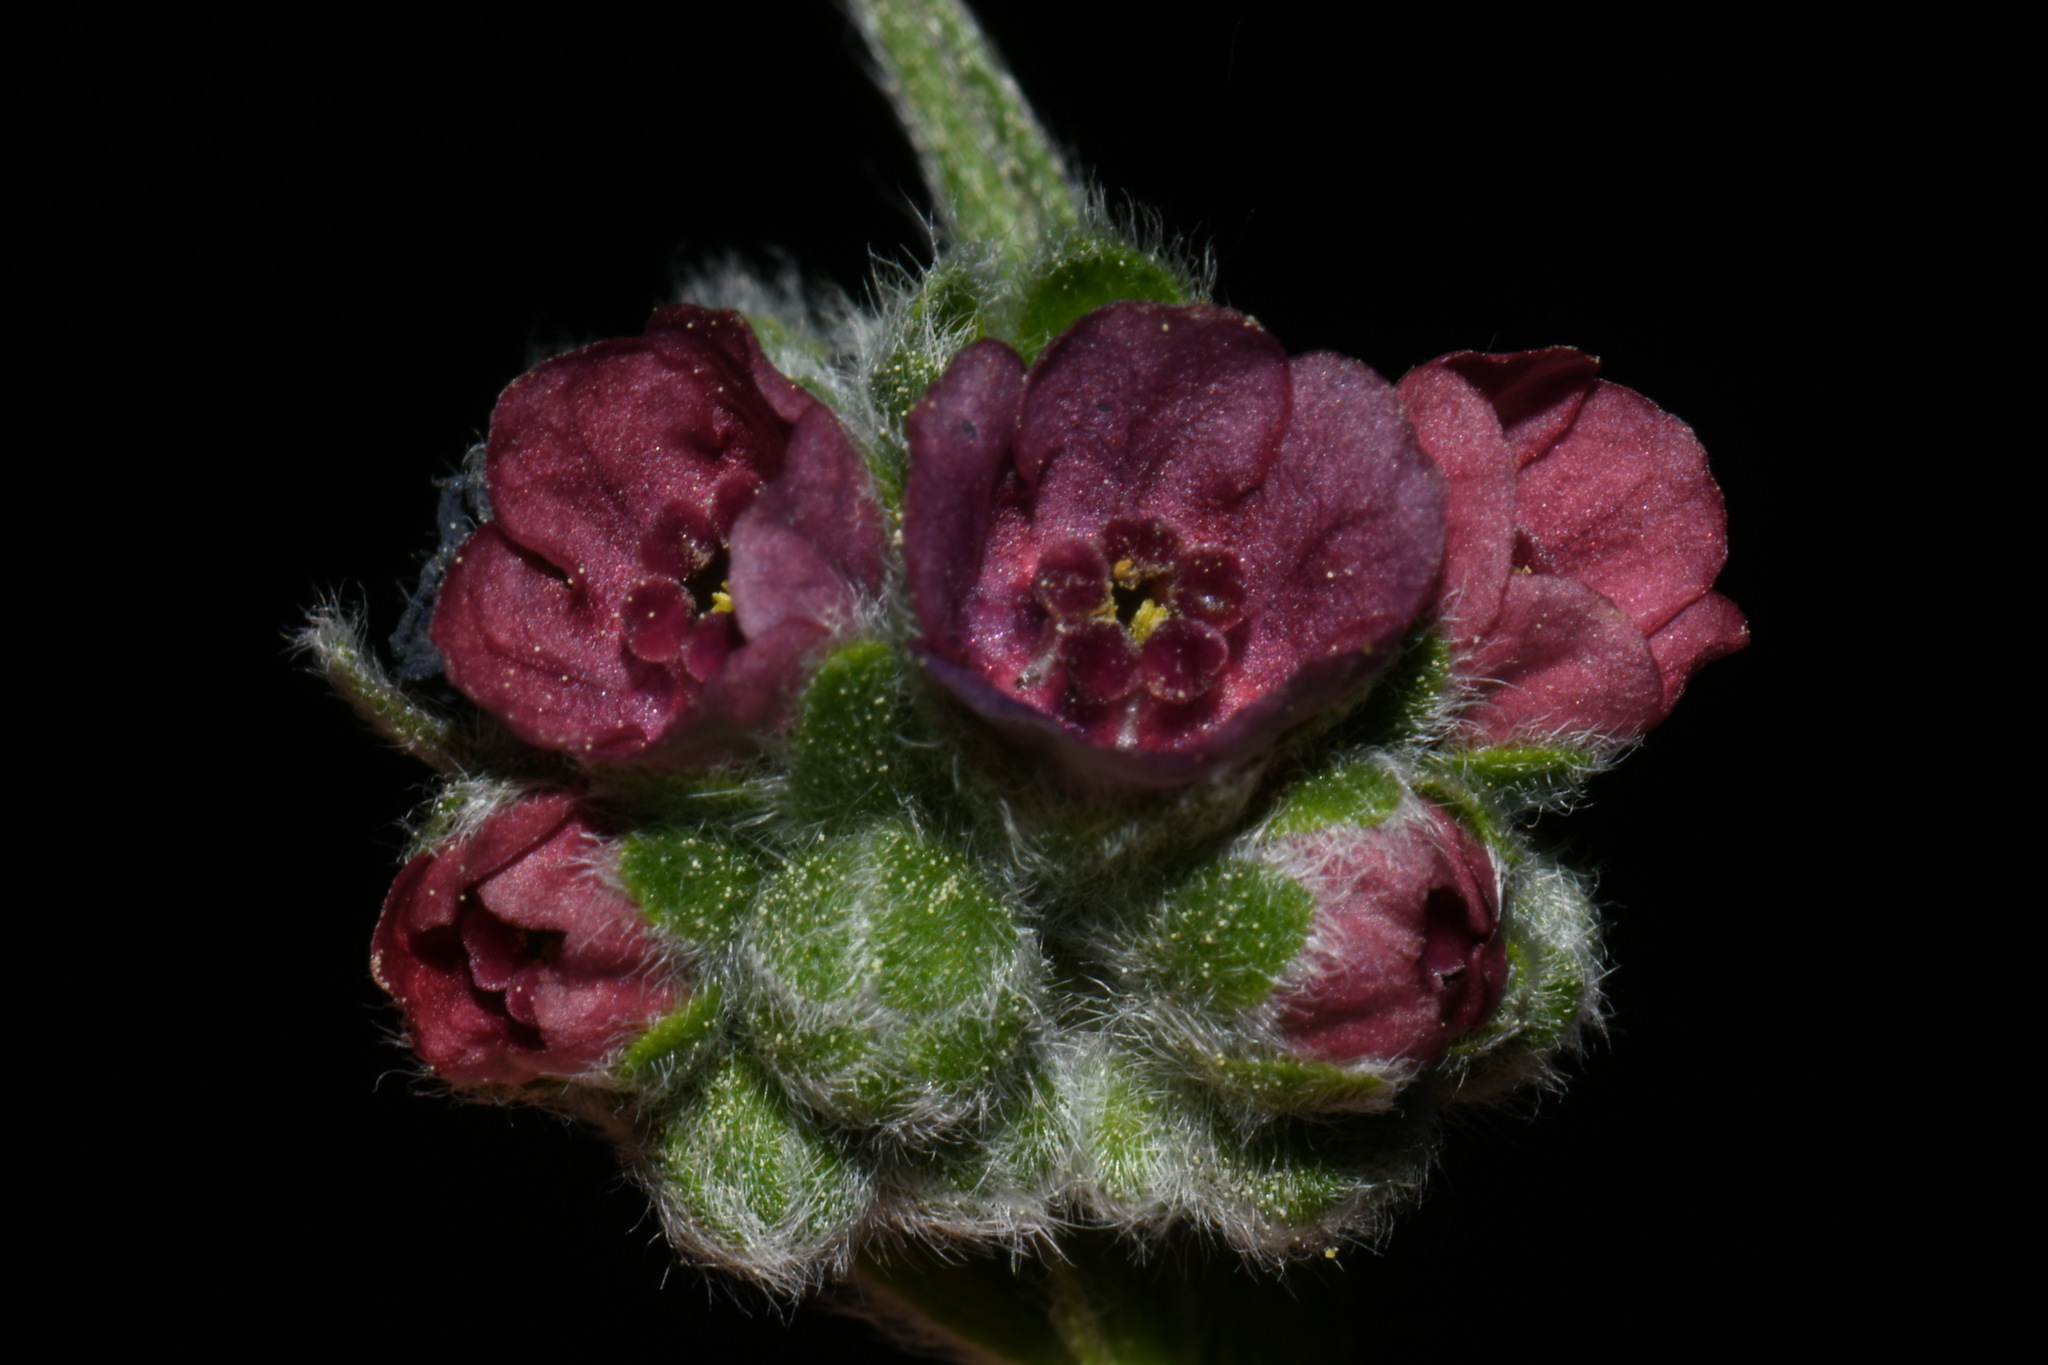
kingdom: Plantae
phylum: Tracheophyta
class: Magnoliopsida
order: Boraginales
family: Boraginaceae
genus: Cynoglossum
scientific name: Cynoglossum officinale
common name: Hound's-tongue
